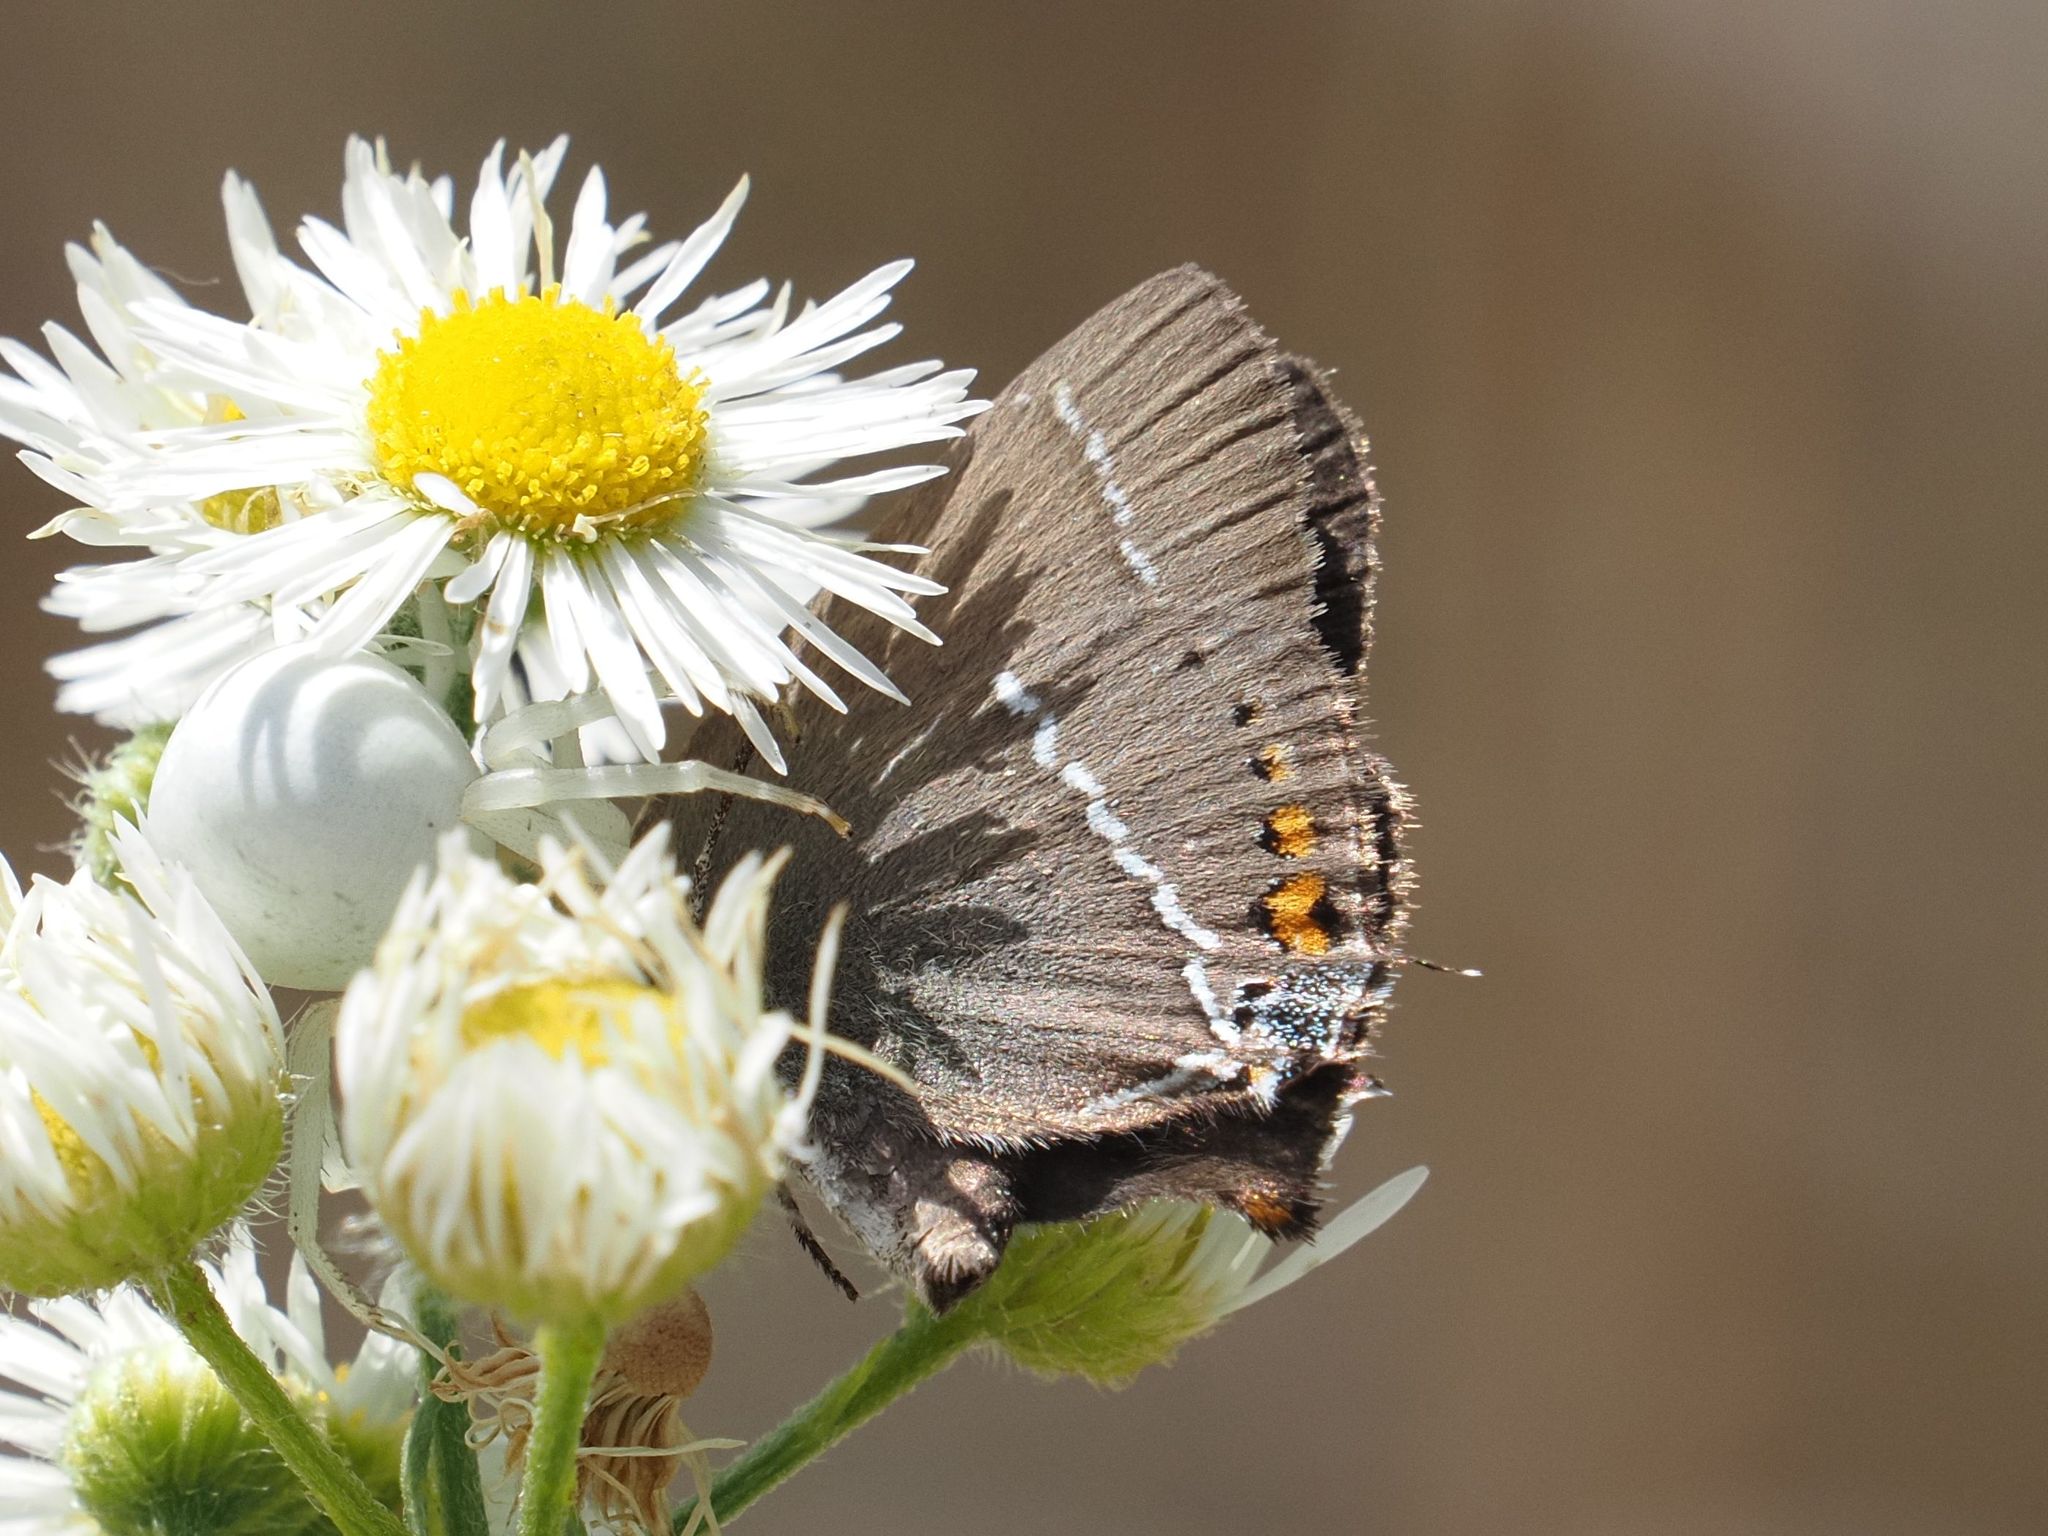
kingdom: Animalia
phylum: Arthropoda
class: Insecta
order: Lepidoptera
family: Lycaenidae
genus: Tuttiola
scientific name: Tuttiola spini
